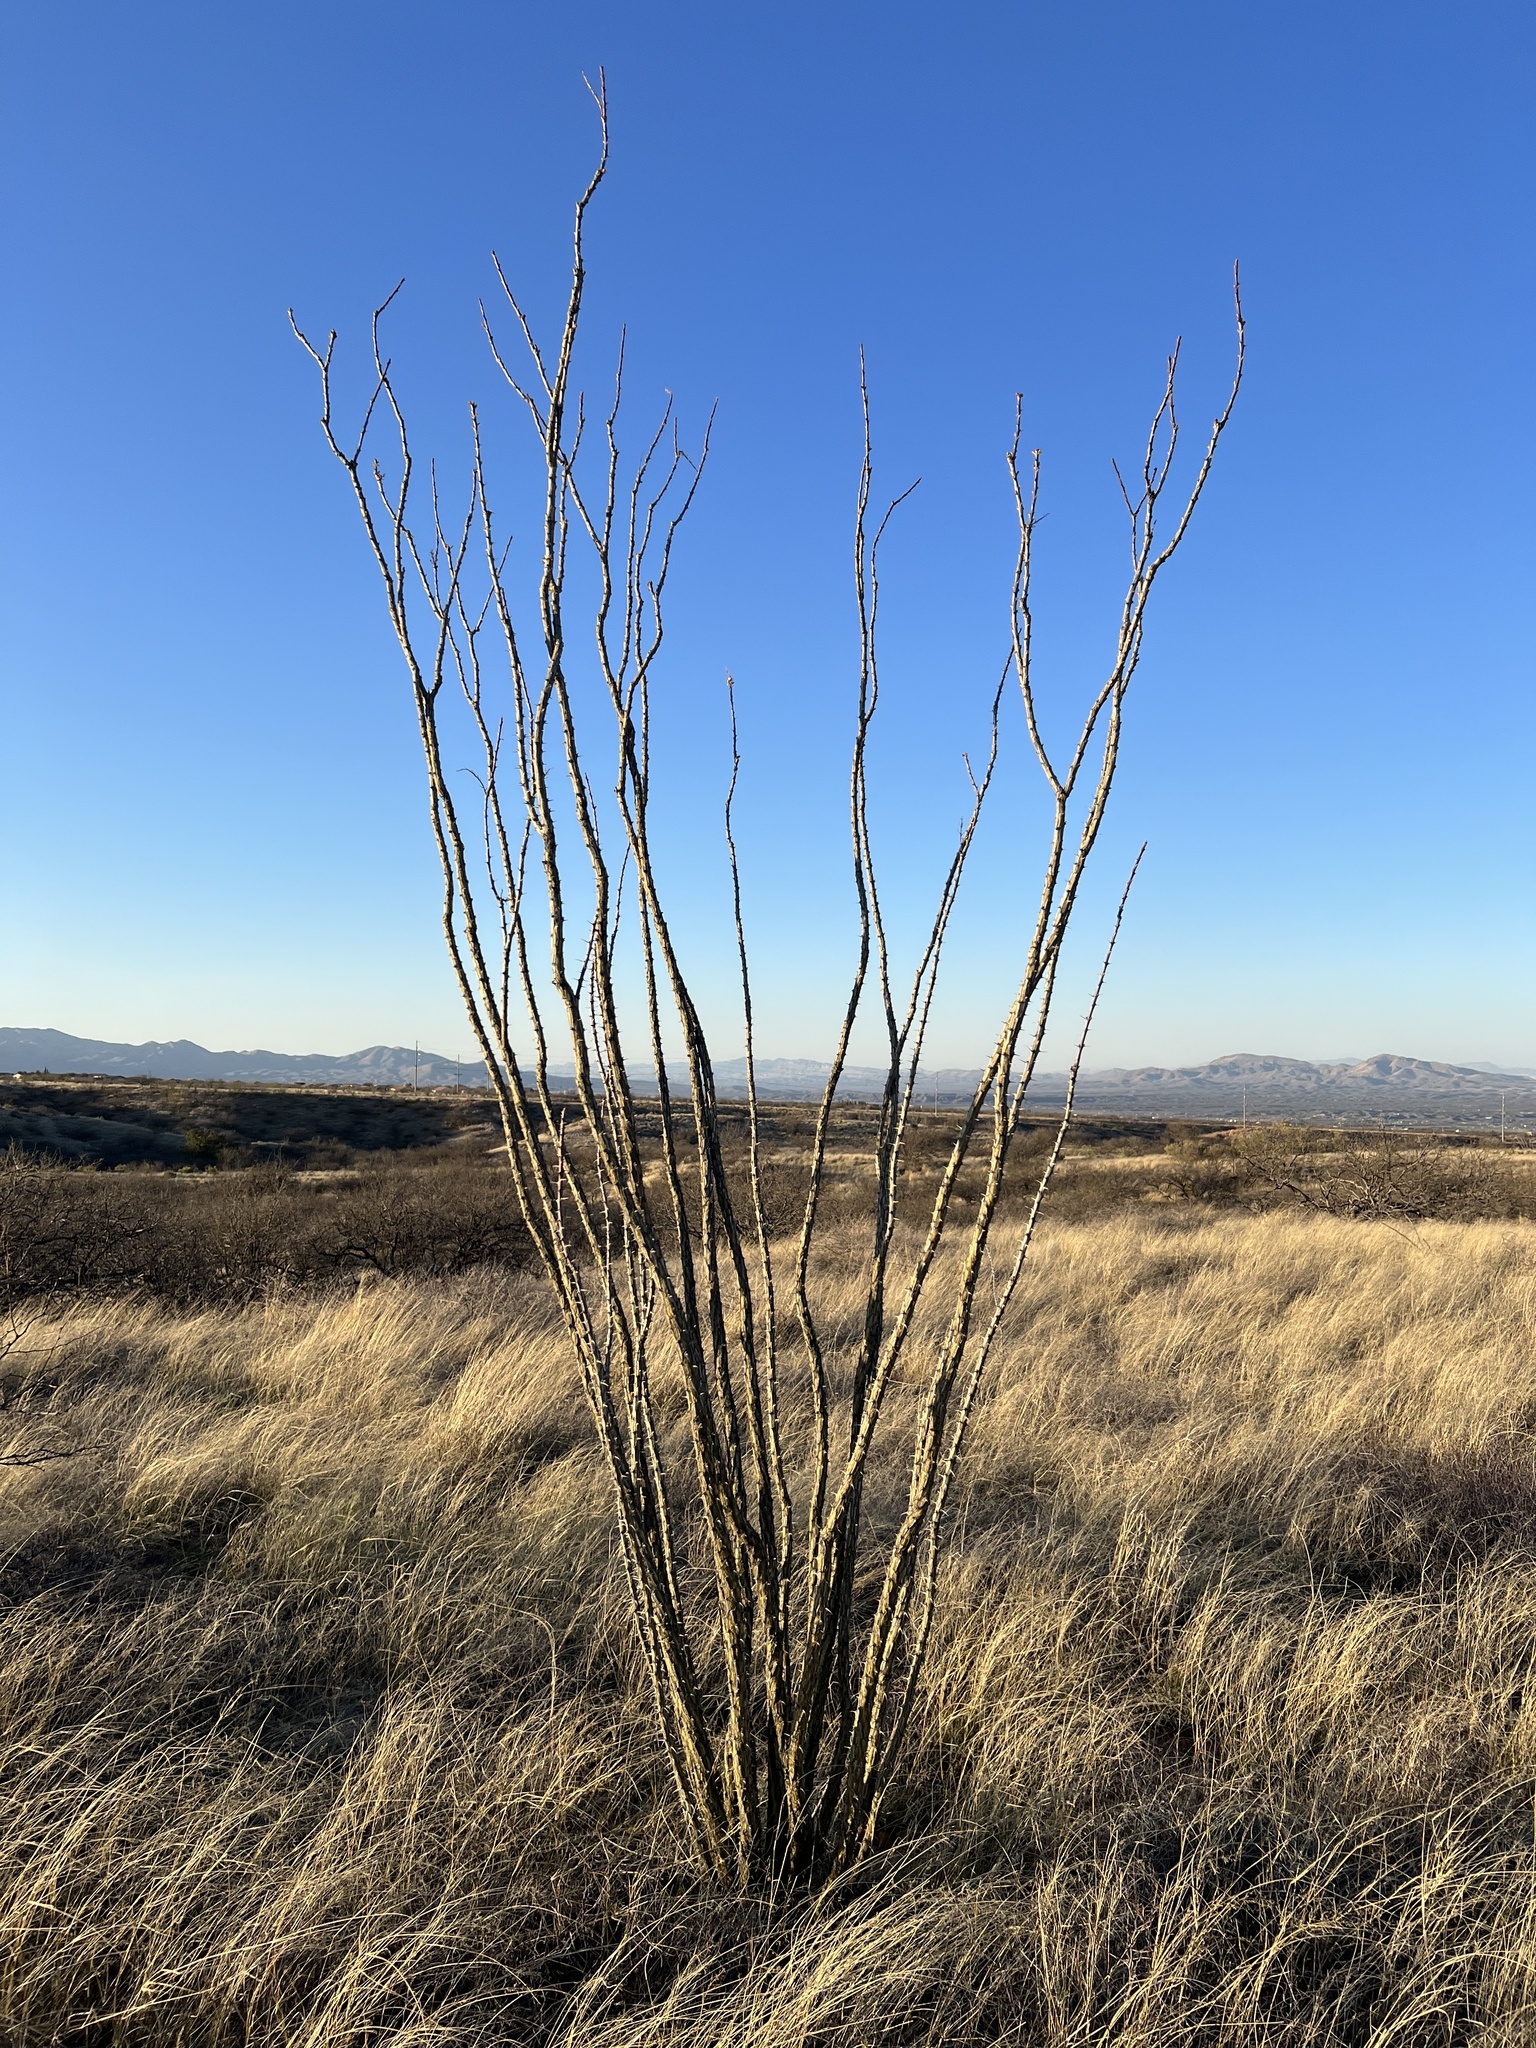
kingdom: Plantae
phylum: Tracheophyta
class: Magnoliopsida
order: Ericales
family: Fouquieriaceae
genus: Fouquieria
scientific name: Fouquieria splendens
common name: Vine-cactus
